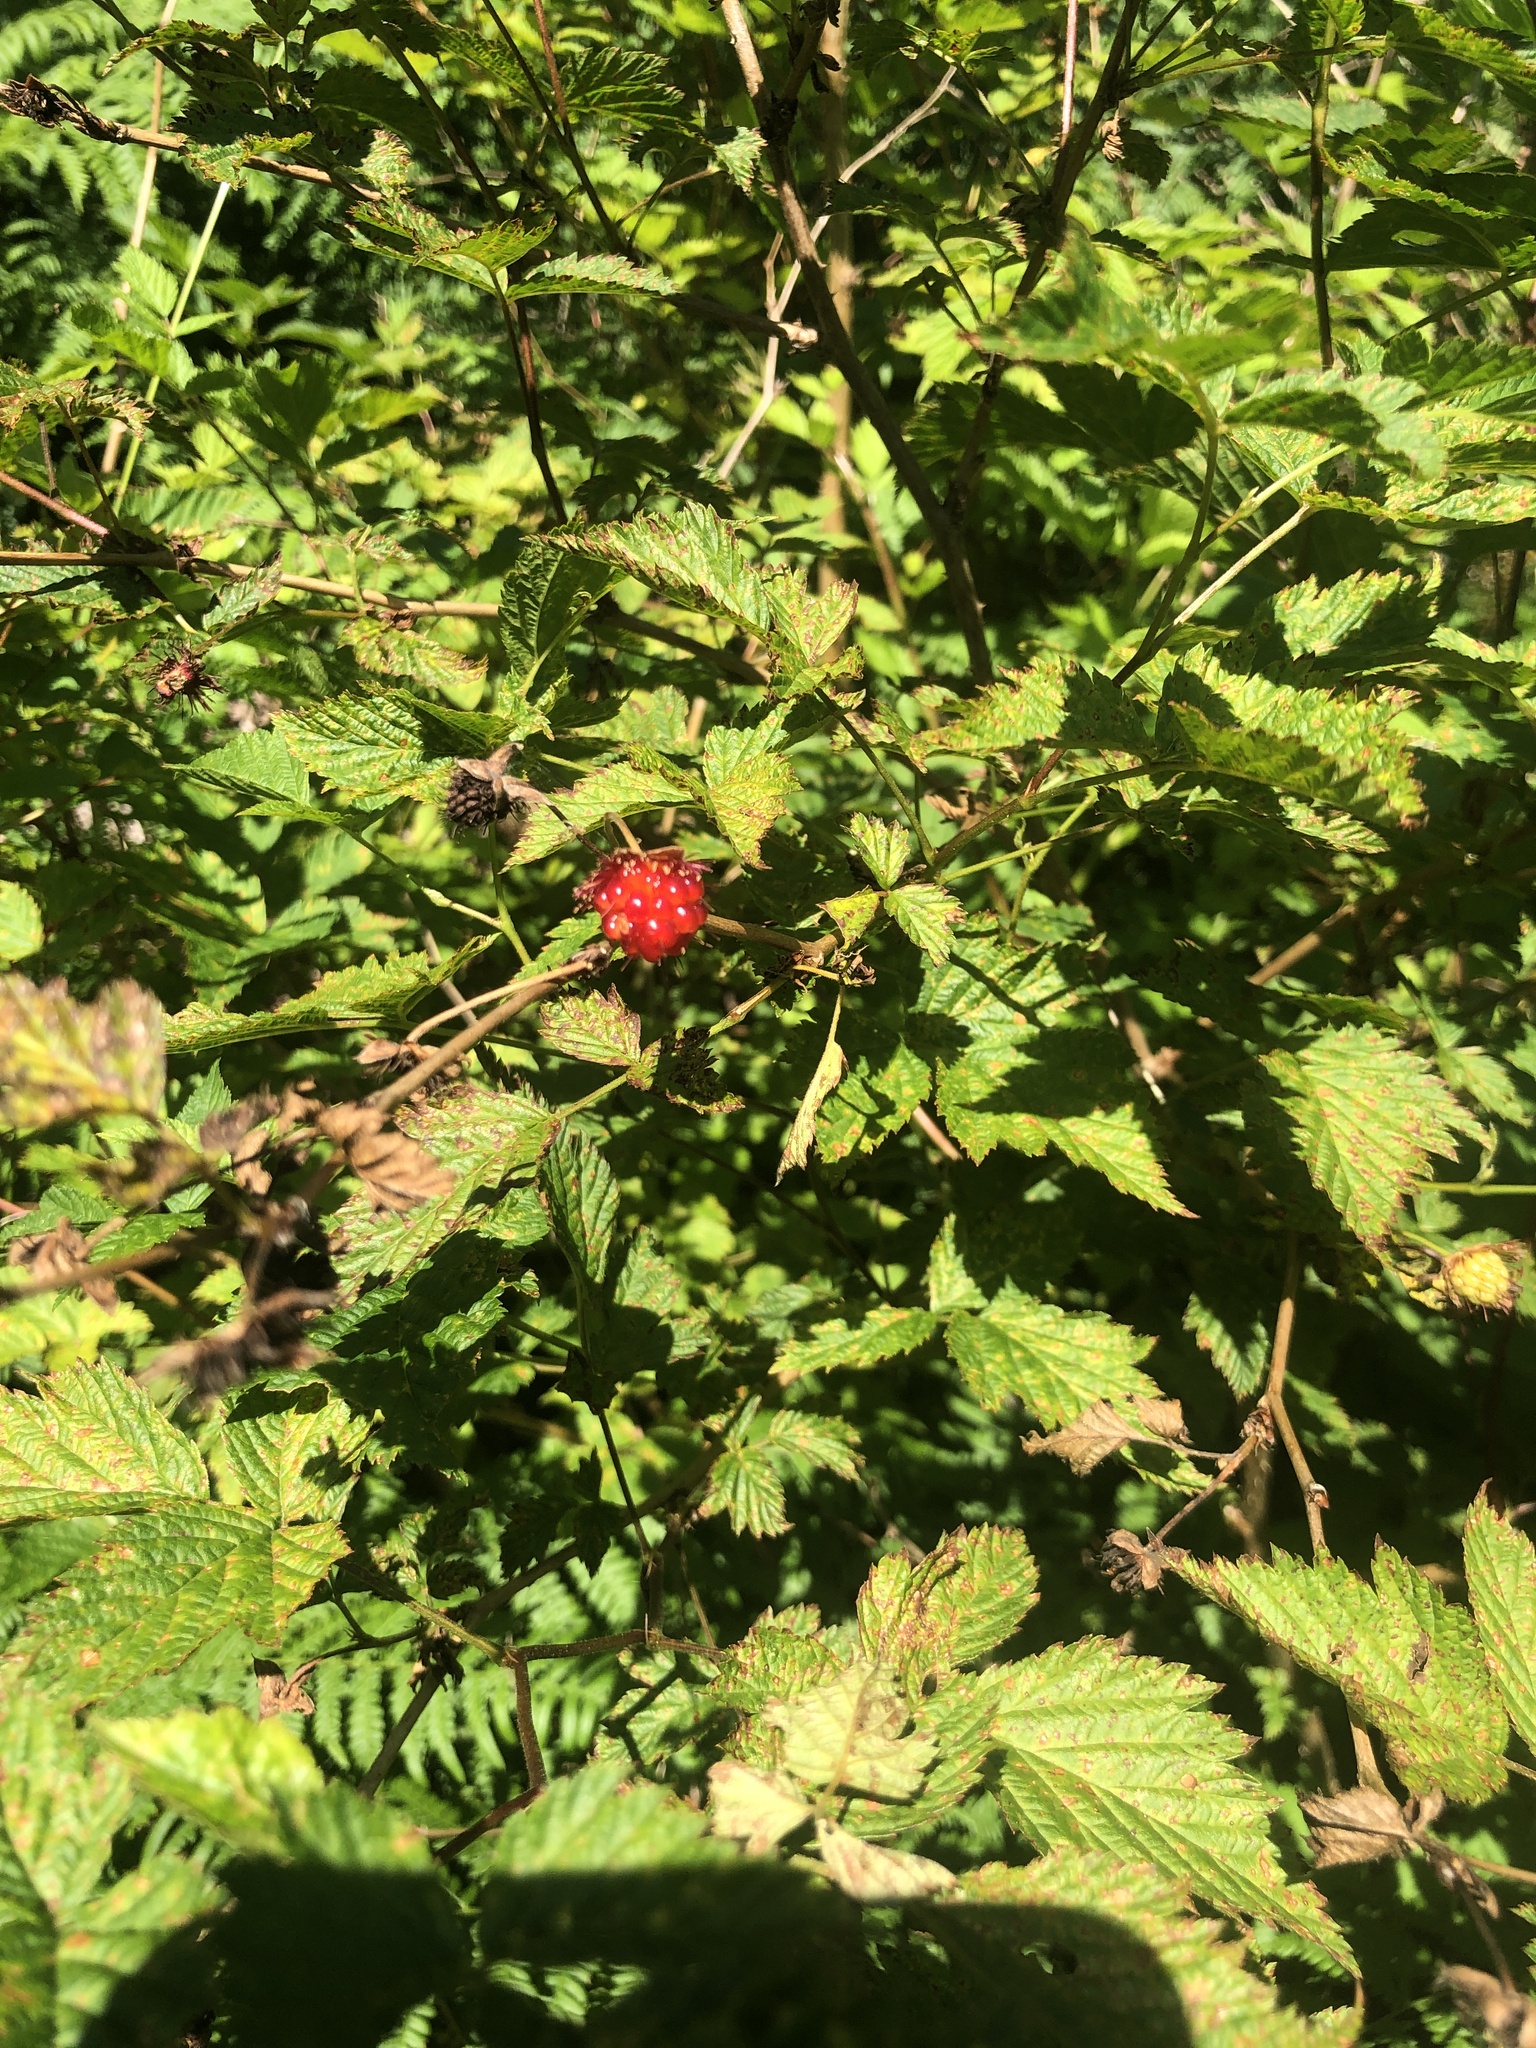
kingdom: Plantae
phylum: Tracheophyta
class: Magnoliopsida
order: Rosales
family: Rosaceae
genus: Rubus
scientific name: Rubus spectabilis
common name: Salmonberry
